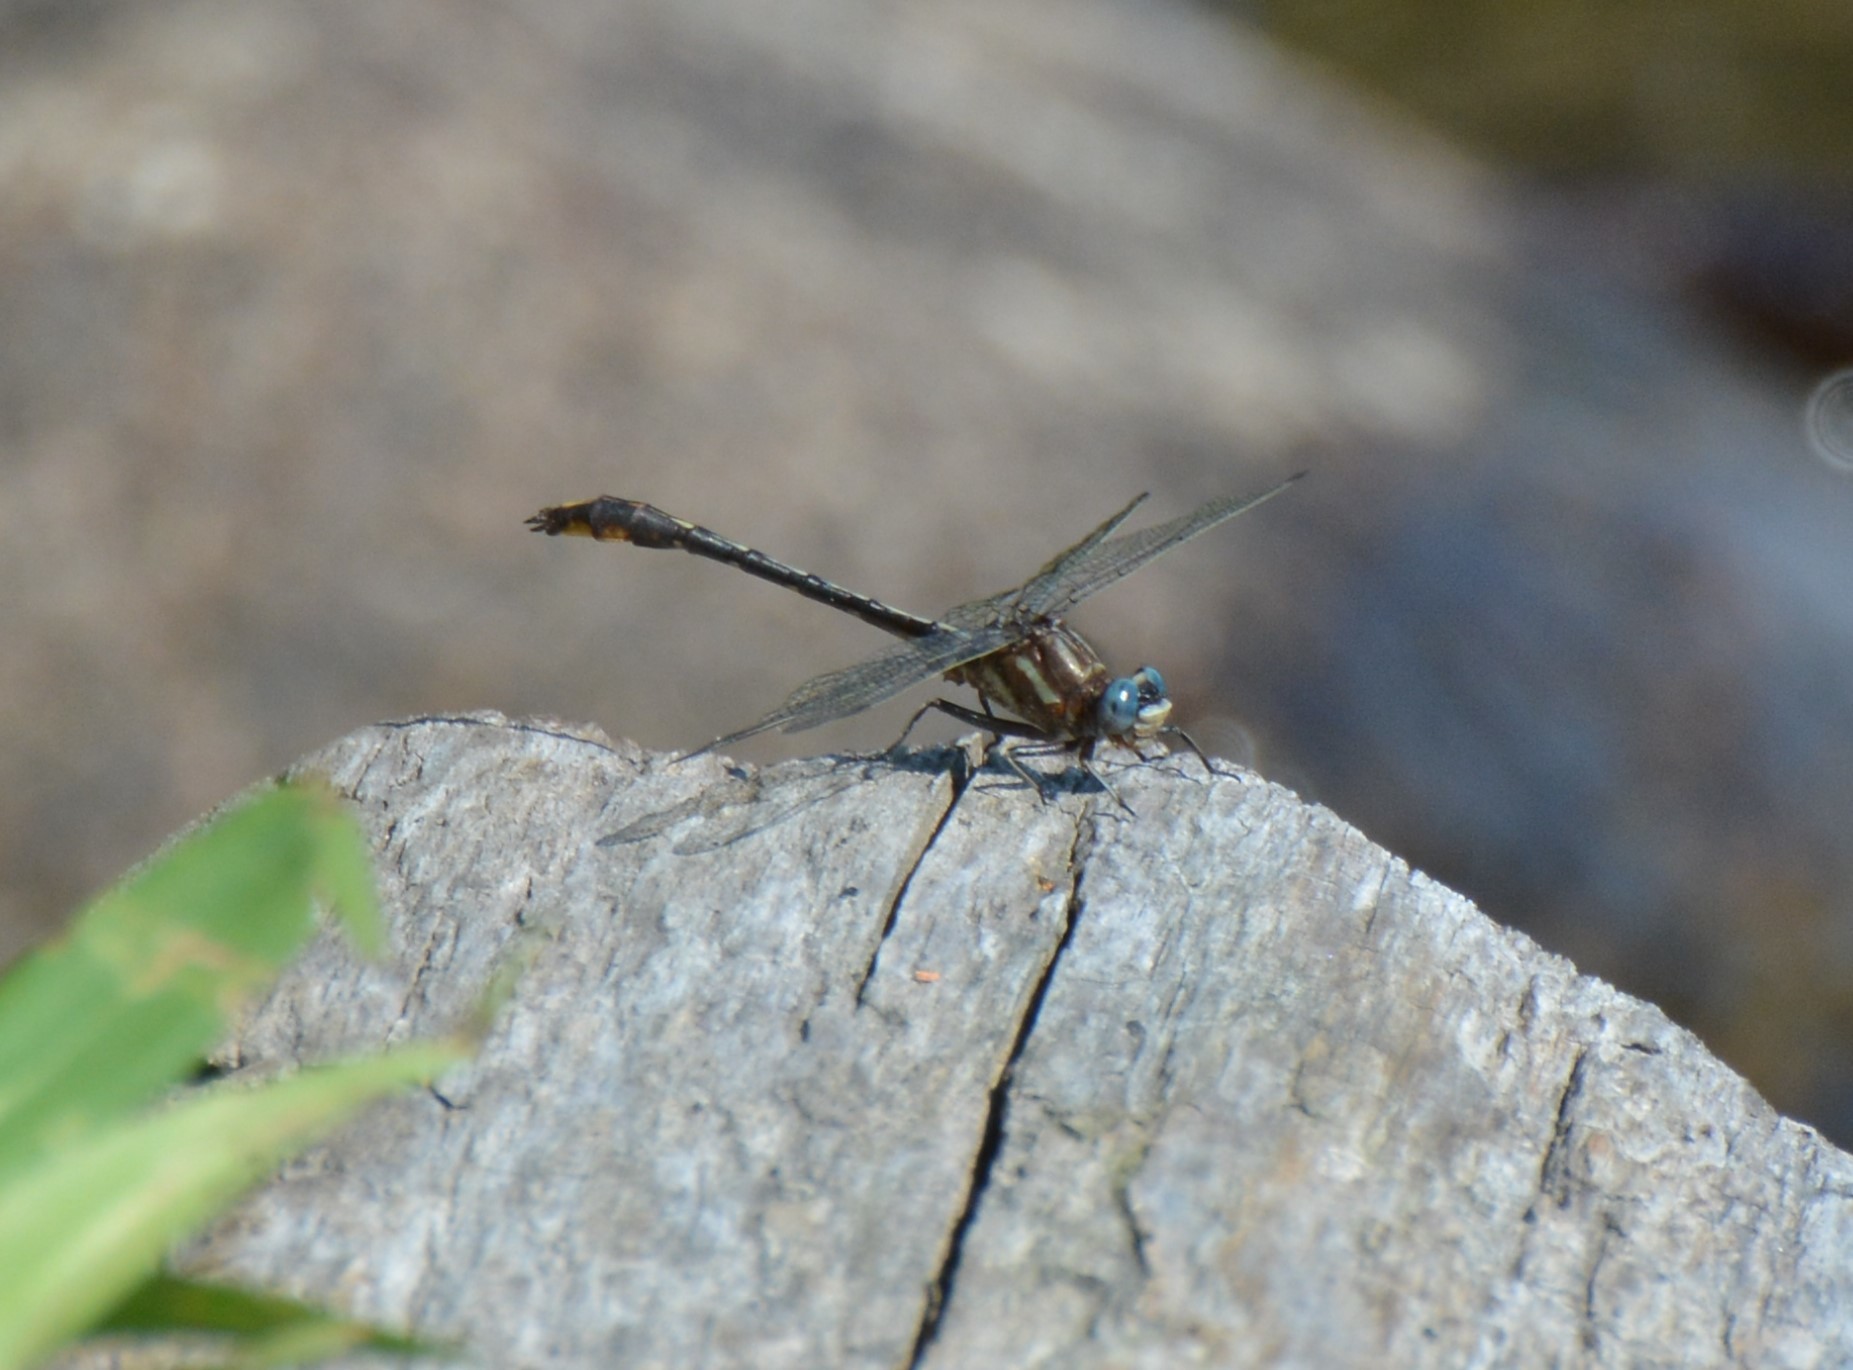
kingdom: Animalia
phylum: Arthropoda
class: Insecta
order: Odonata
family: Gomphidae
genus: Phanogomphus
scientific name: Phanogomphus exilis
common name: Lancet clubtail
